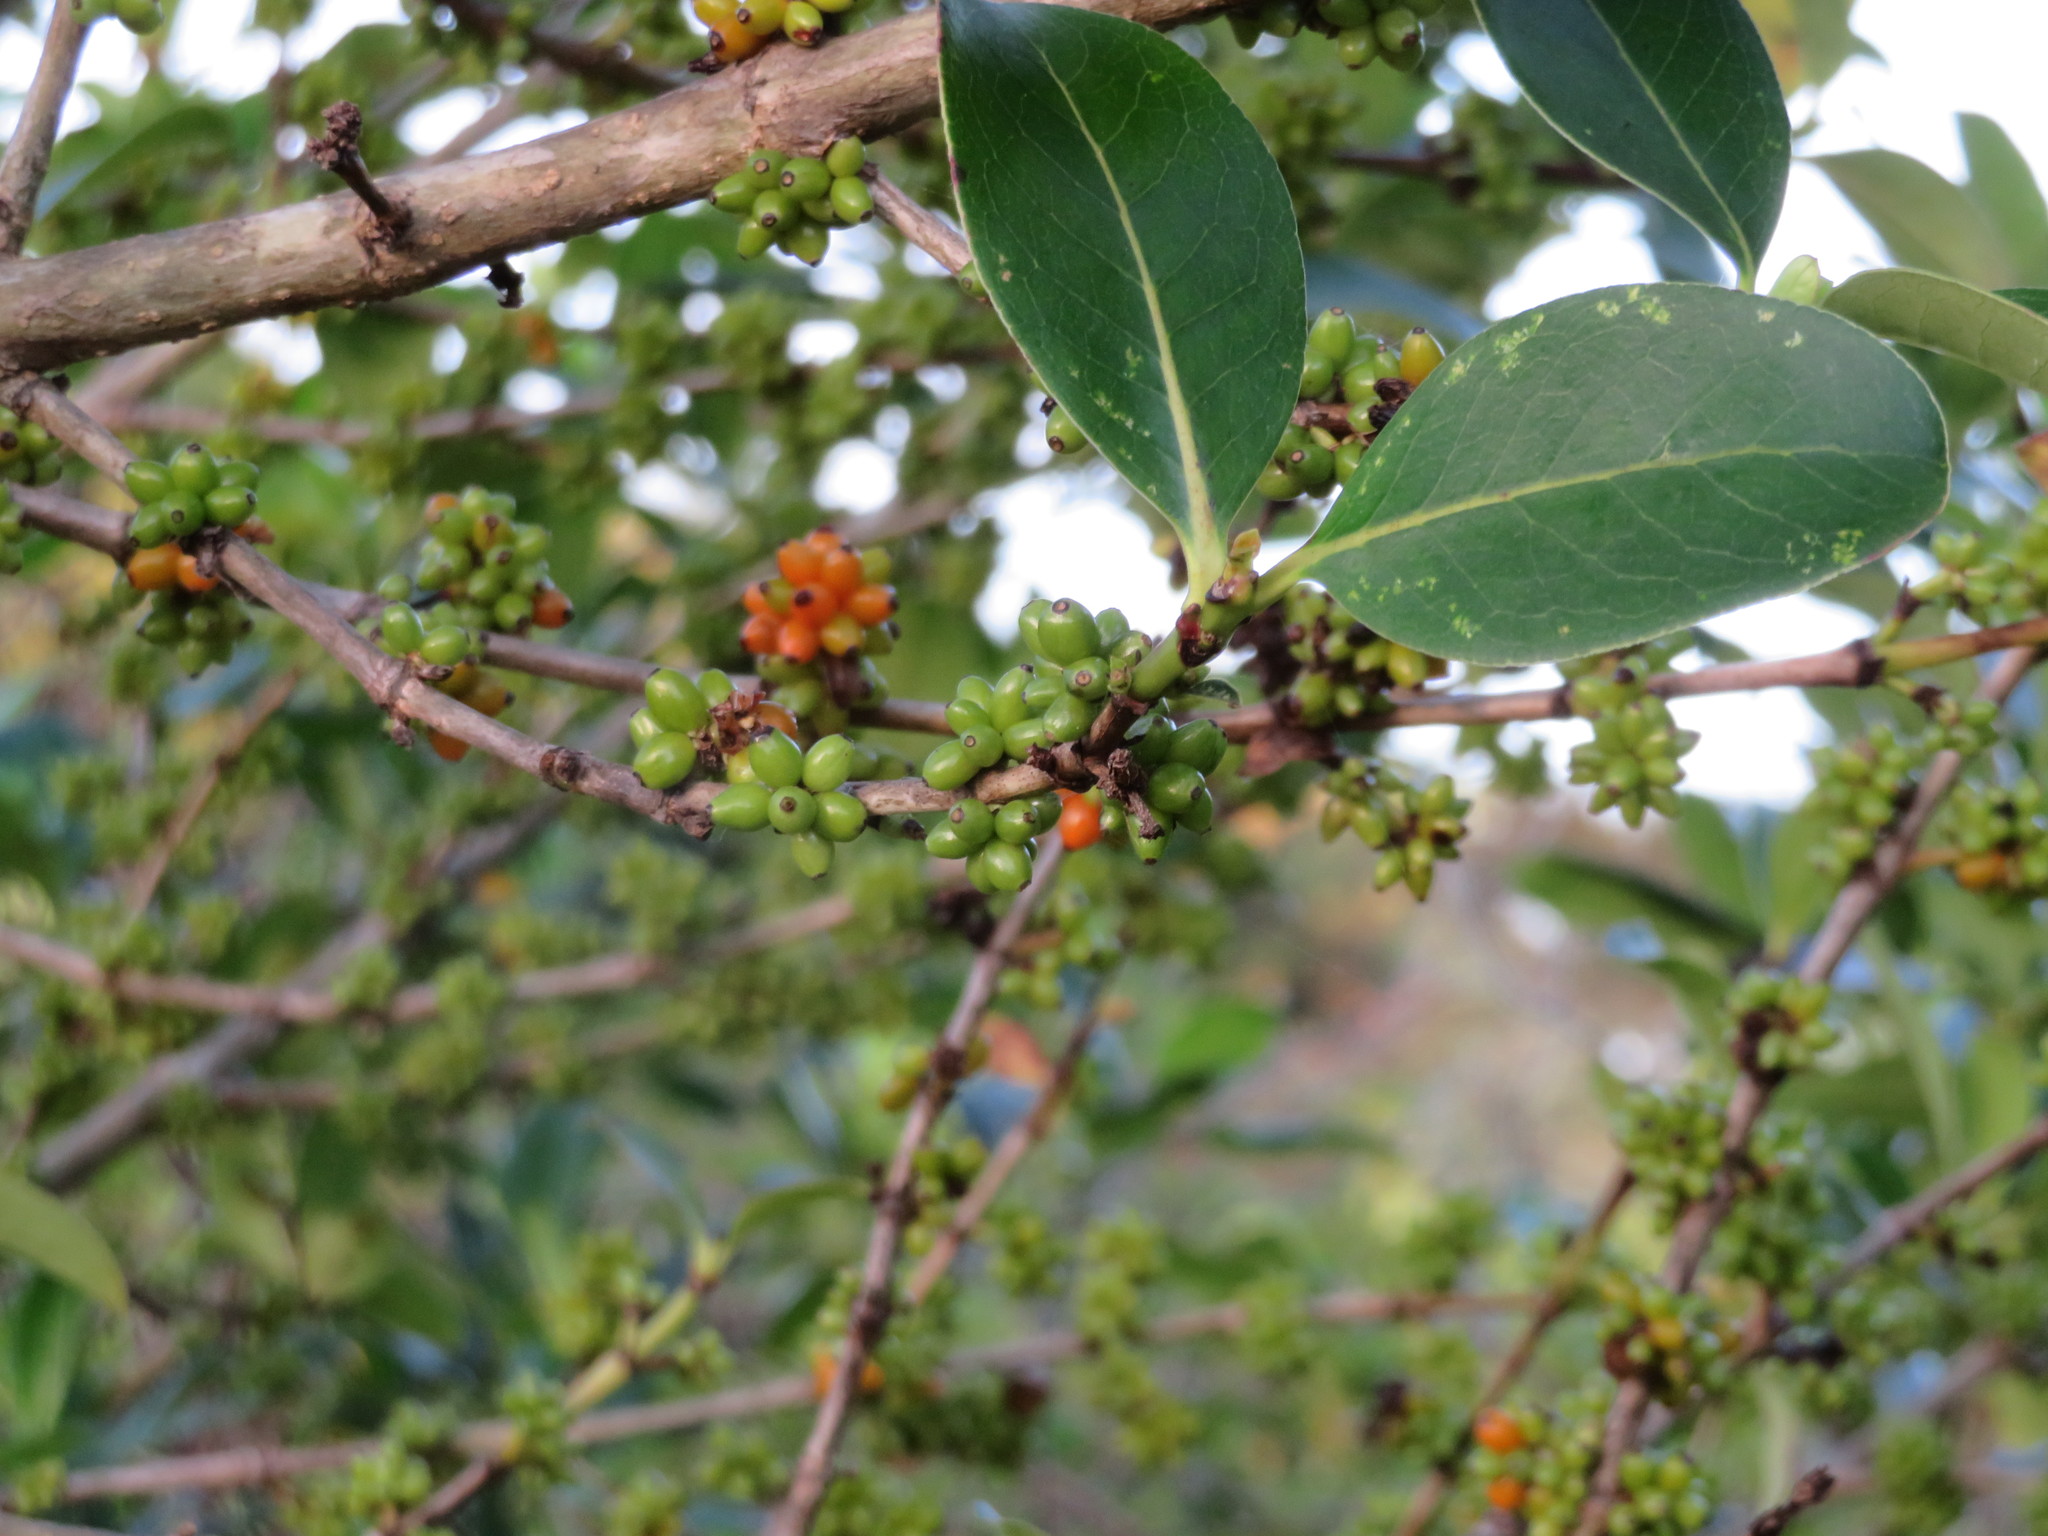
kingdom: Plantae
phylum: Tracheophyta
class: Magnoliopsida
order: Gentianales
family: Rubiaceae
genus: Coprosma
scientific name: Coprosma robusta
